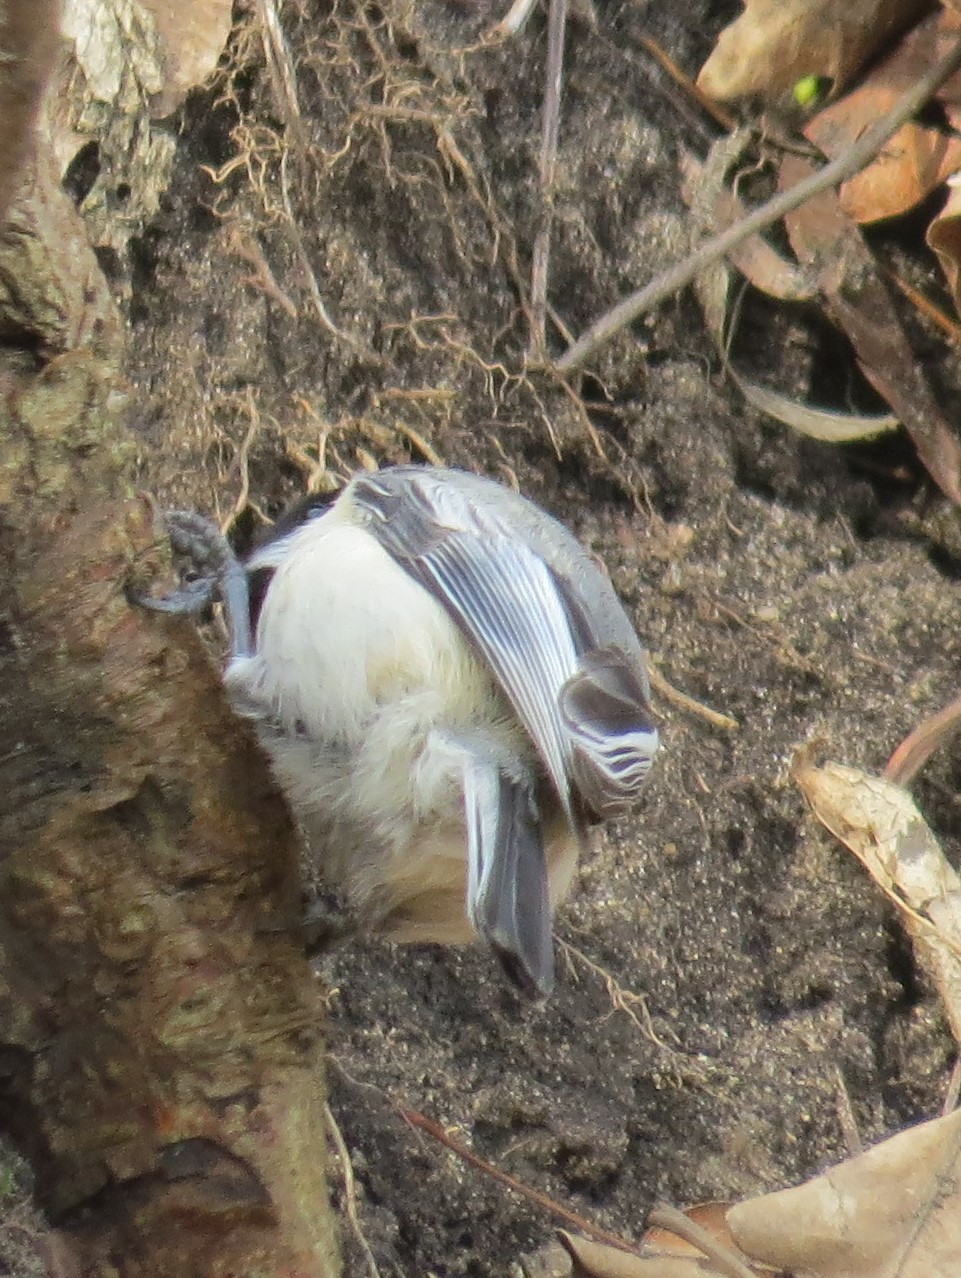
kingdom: Animalia
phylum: Chordata
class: Aves
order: Passeriformes
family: Paridae
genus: Poecile
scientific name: Poecile atricapillus
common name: Black-capped chickadee
